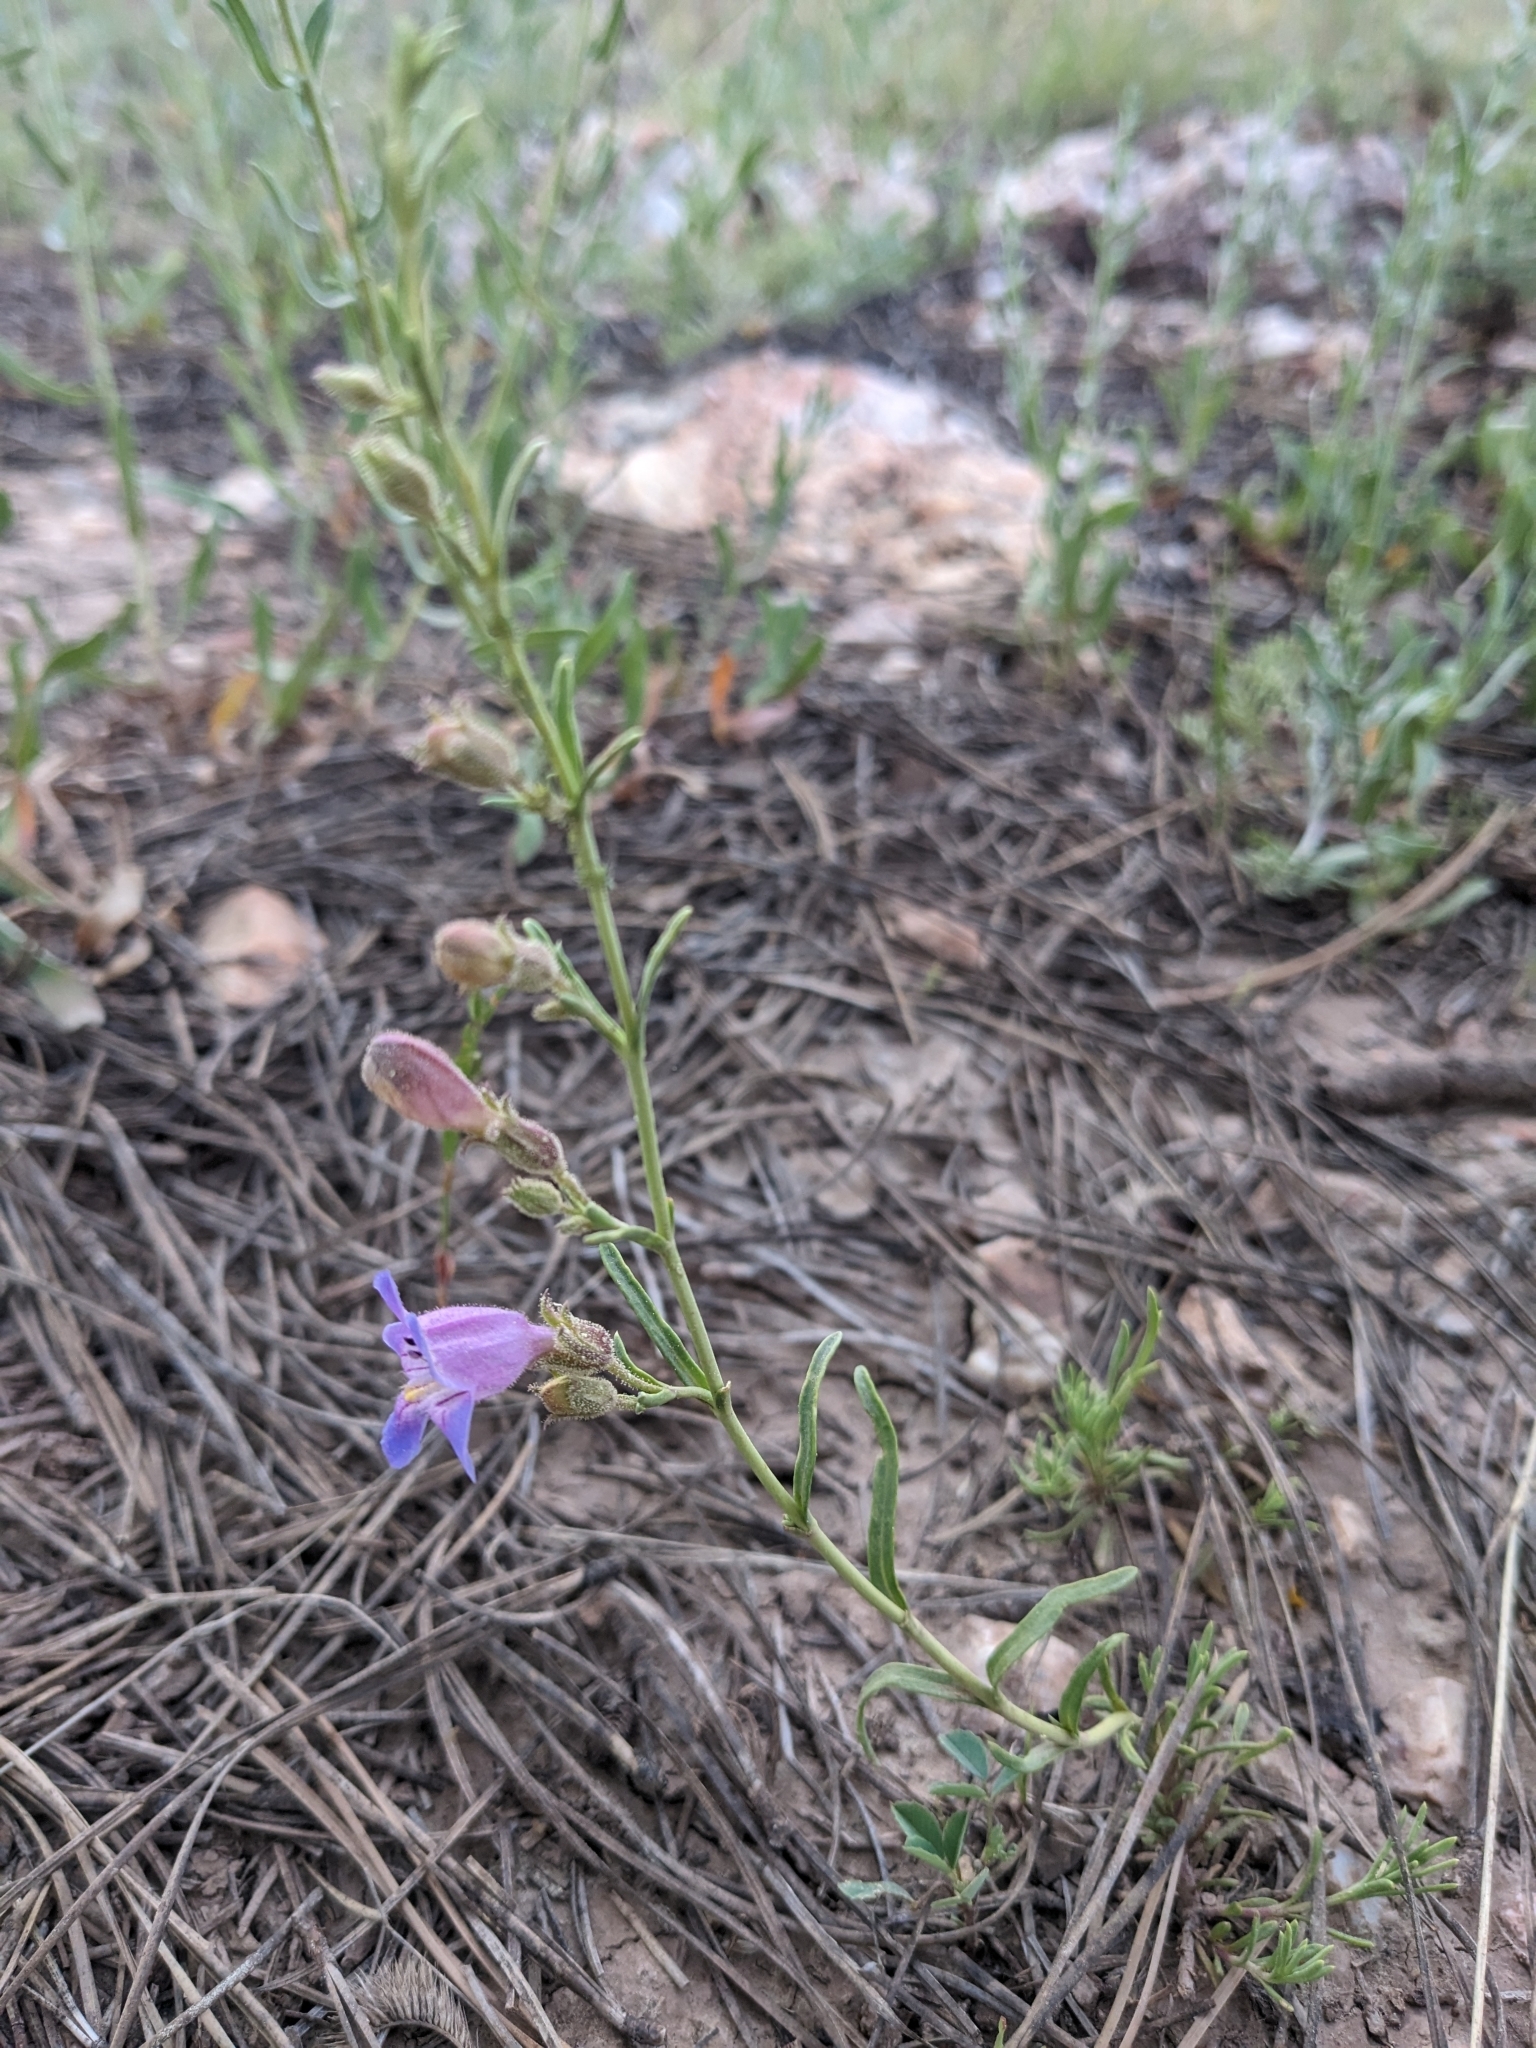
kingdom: Plantae
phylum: Tracheophyta
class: Magnoliopsida
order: Lamiales
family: Plantaginaceae
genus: Penstemon
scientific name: Penstemon linarioides
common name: Siler's penstemon
